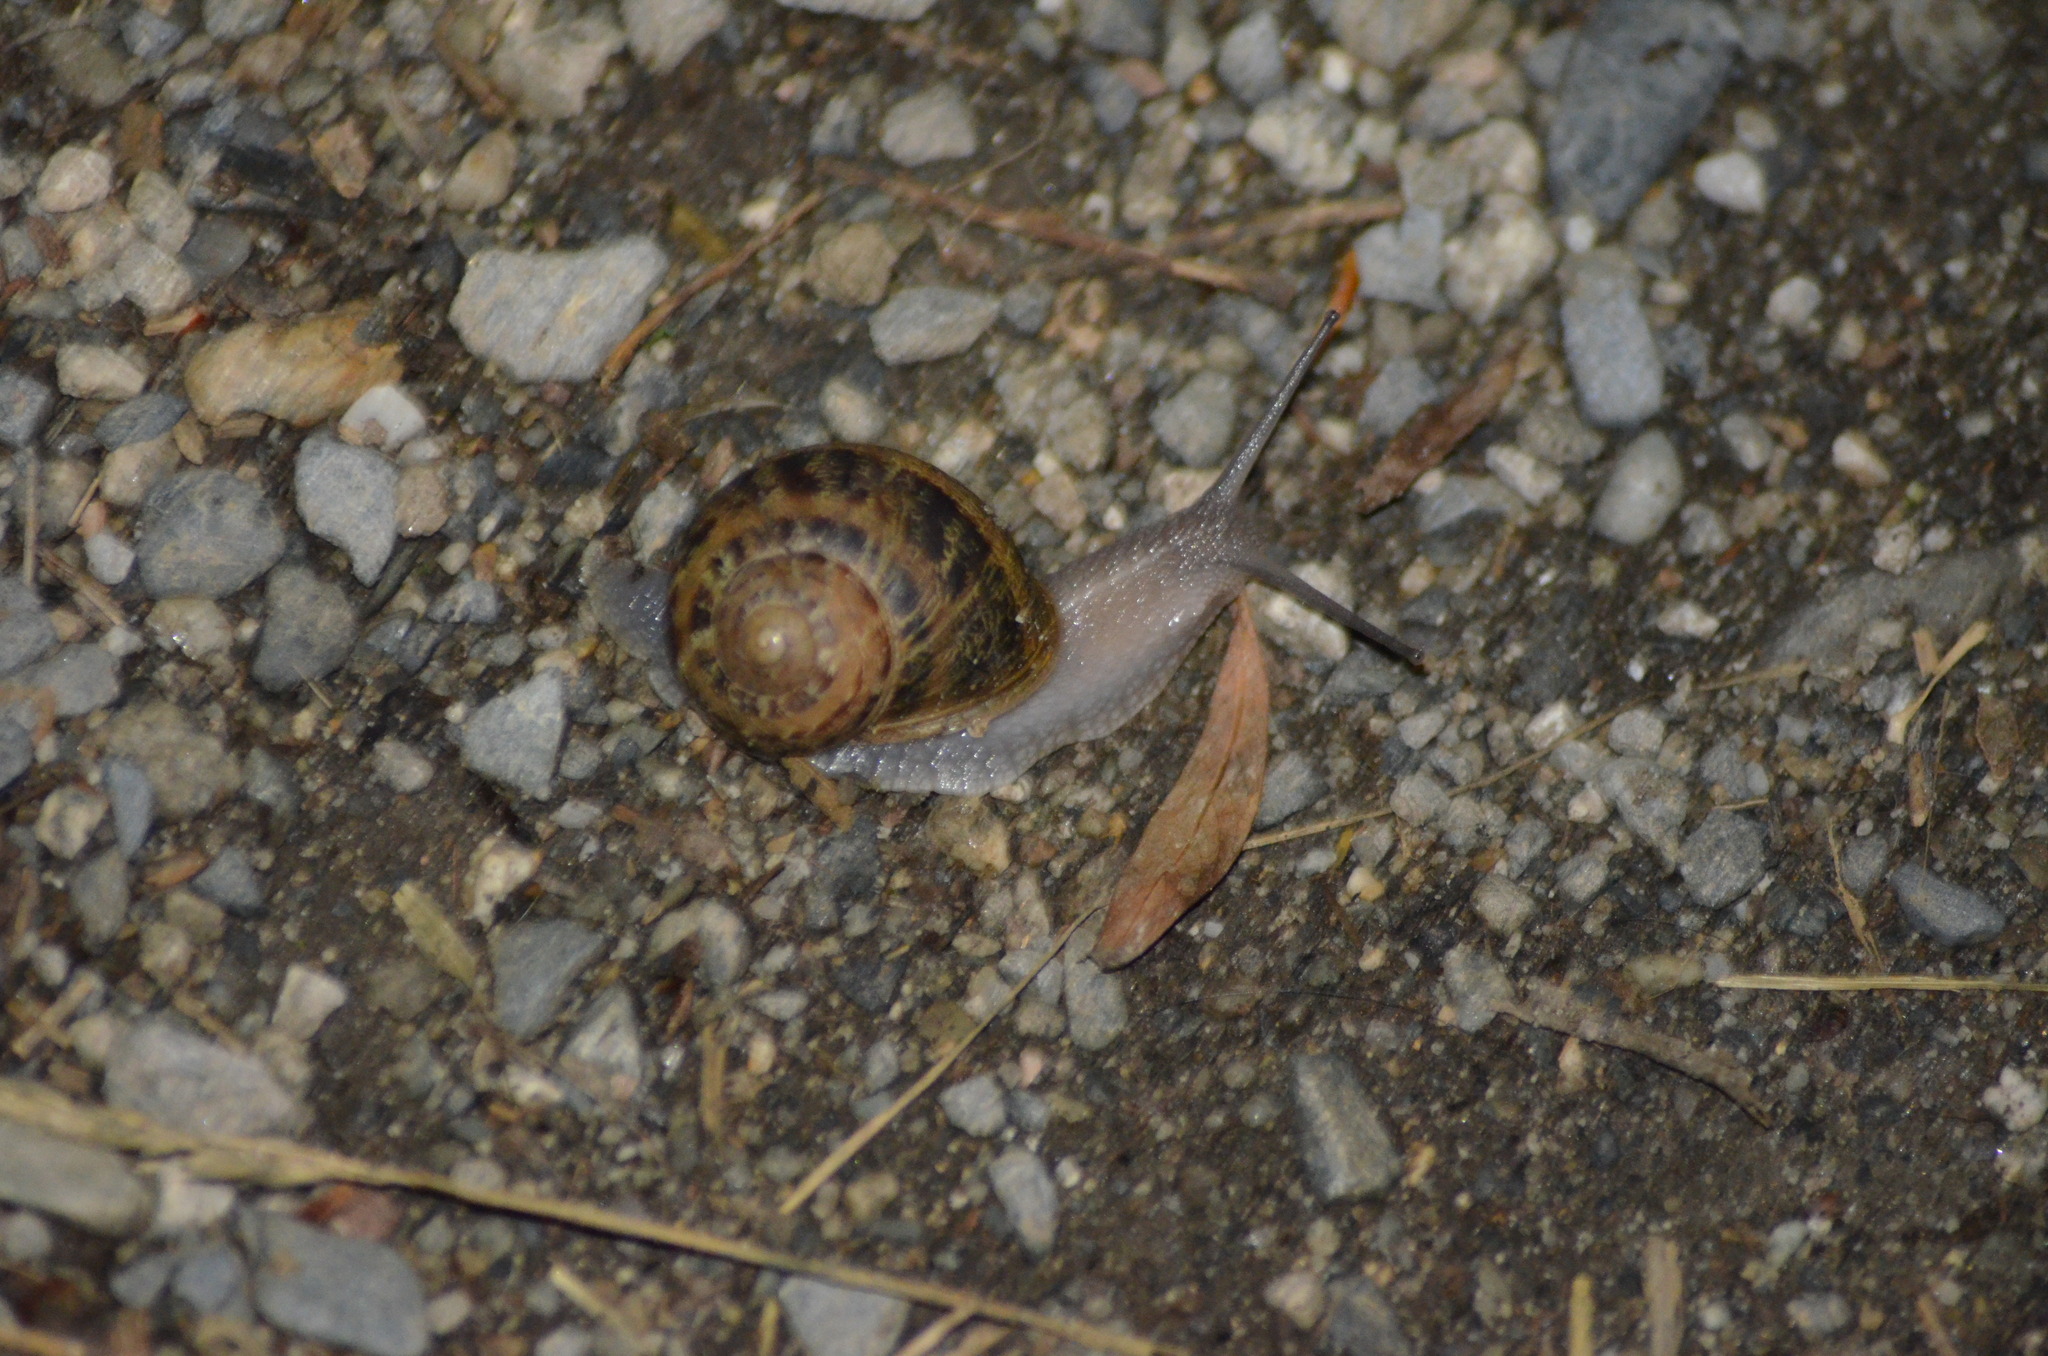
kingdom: Animalia
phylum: Mollusca
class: Gastropoda
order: Stylommatophora
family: Helicidae
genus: Cornu
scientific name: Cornu aspersum
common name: Brown garden snail
